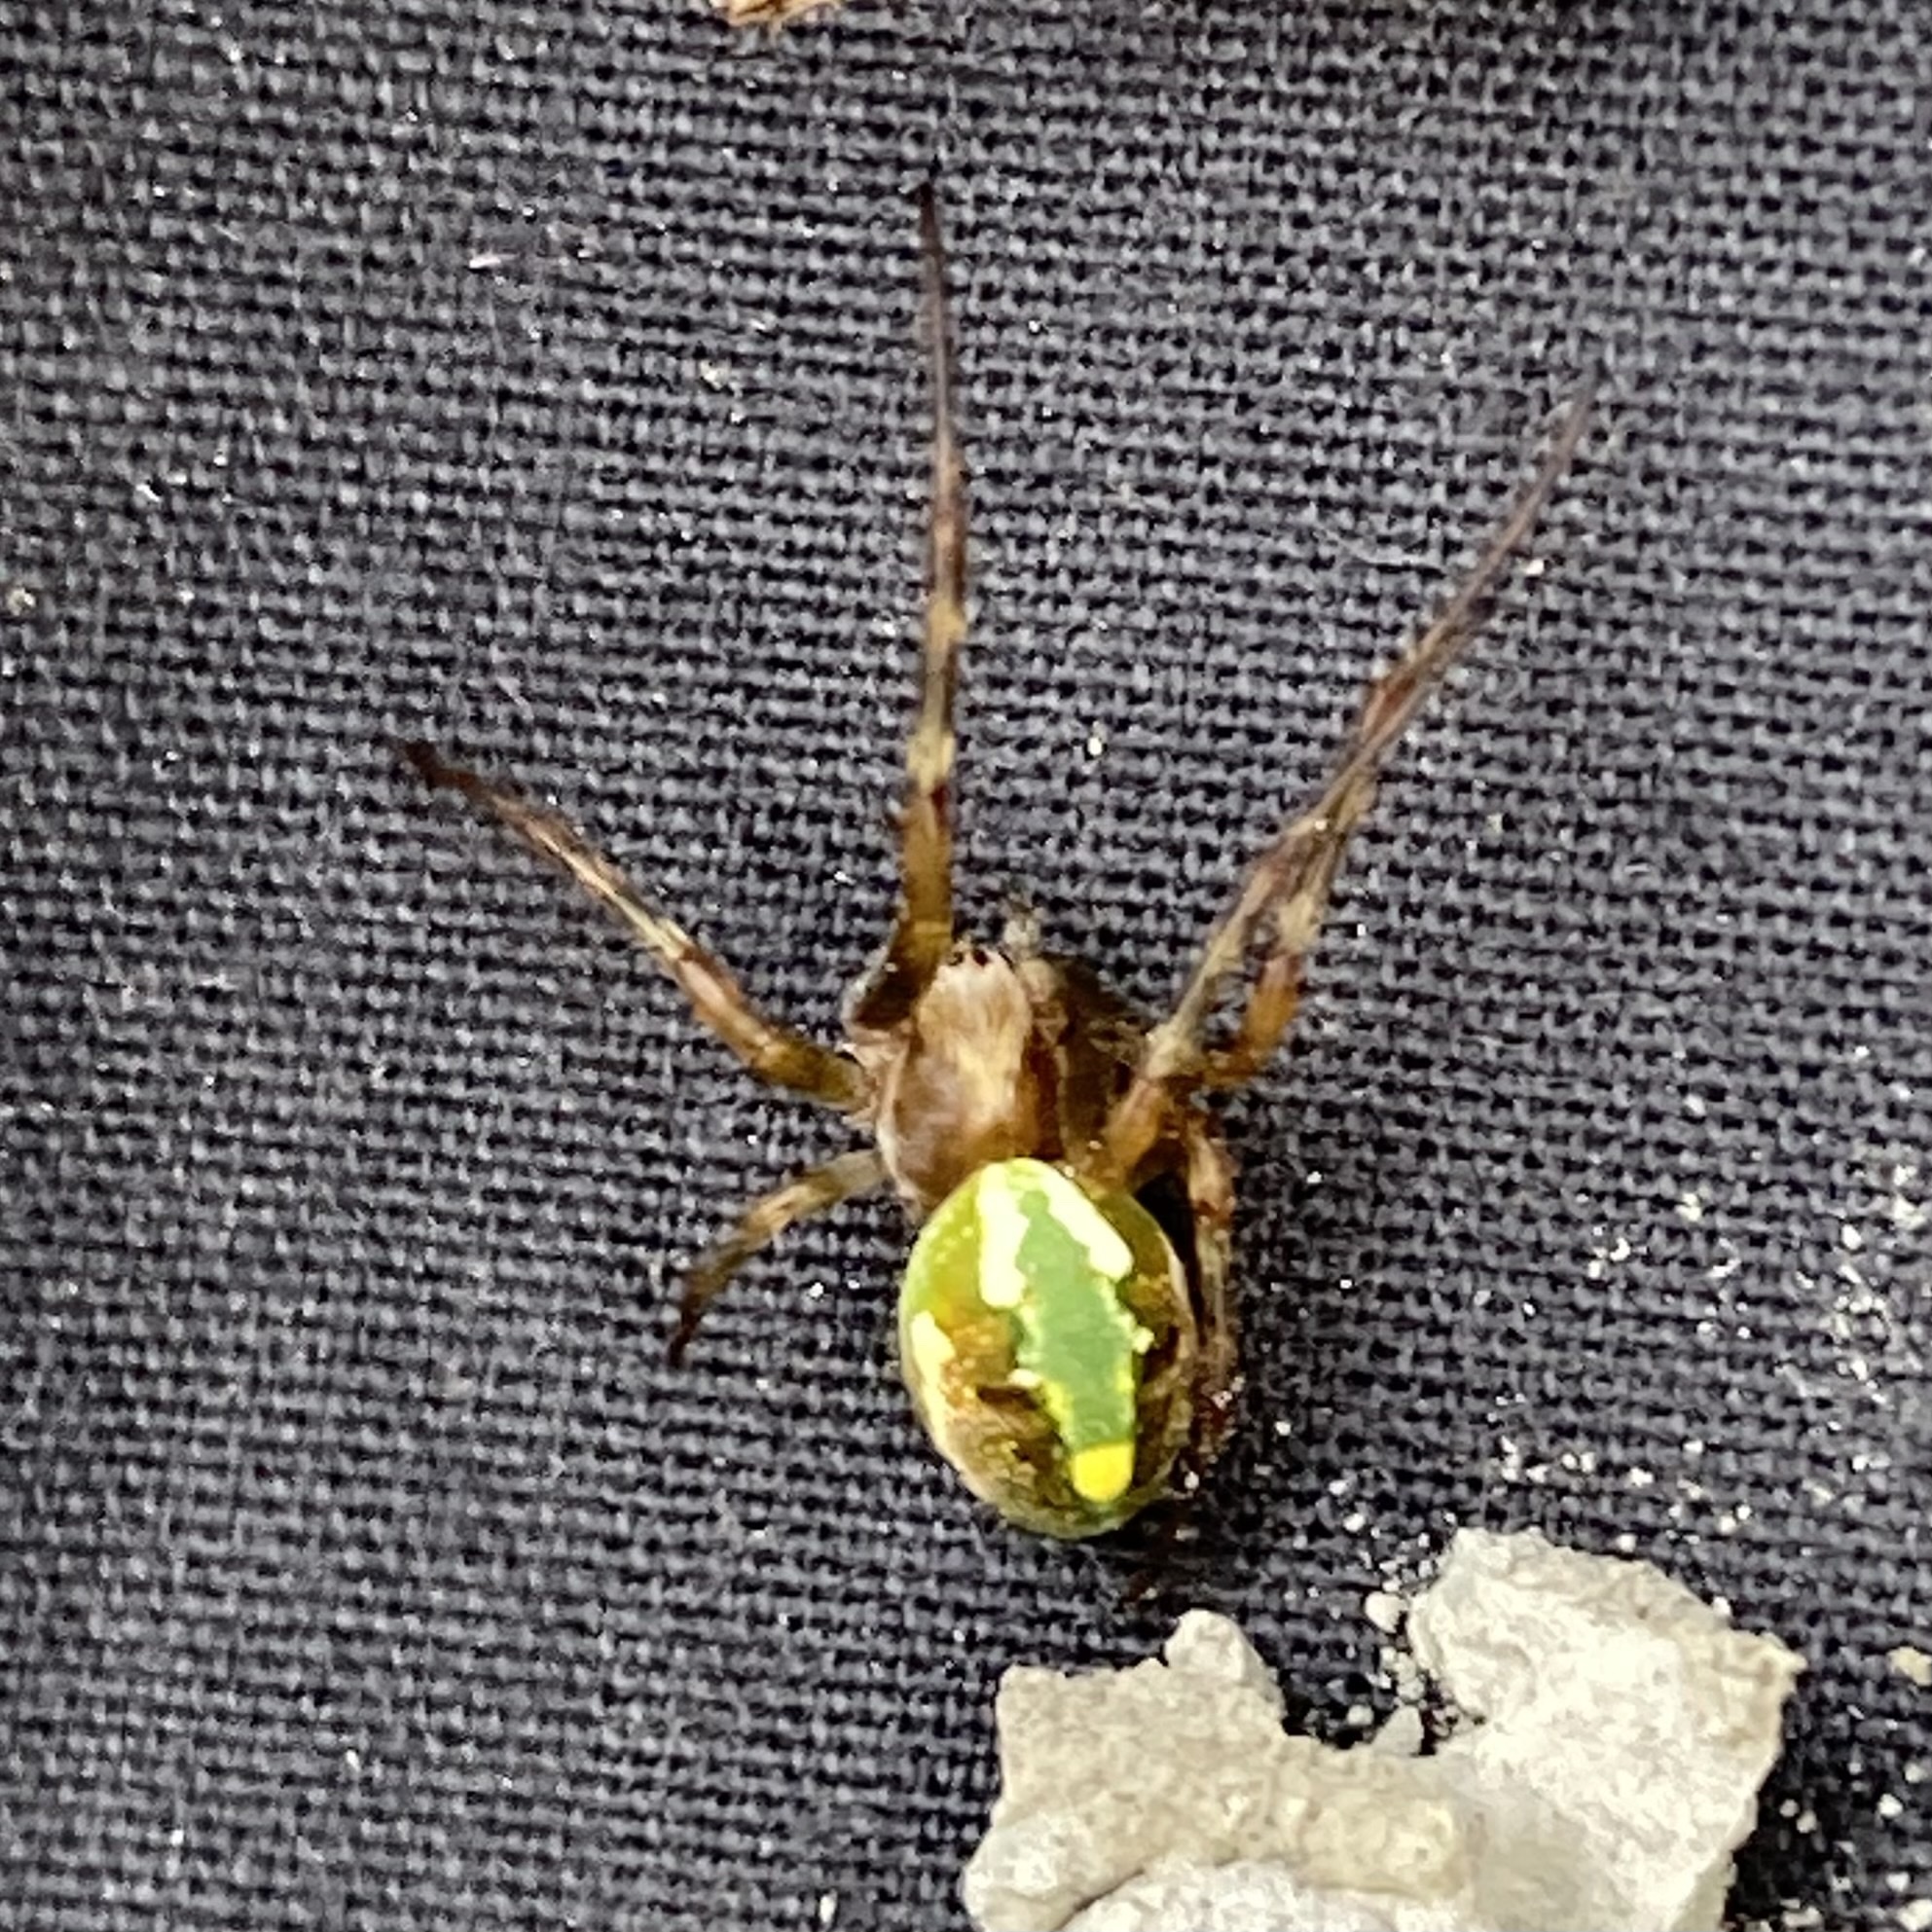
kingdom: Animalia
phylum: Arthropoda
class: Arachnida
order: Araneae
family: Araneidae
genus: Novaranea
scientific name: Novaranea queribunda
